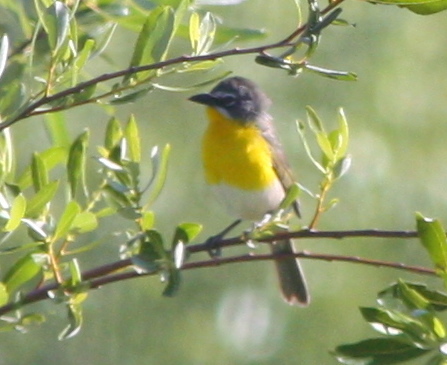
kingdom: Animalia
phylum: Chordata
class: Aves
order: Passeriformes
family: Parulidae
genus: Icteria
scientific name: Icteria virens
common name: Yellow-breasted chat
